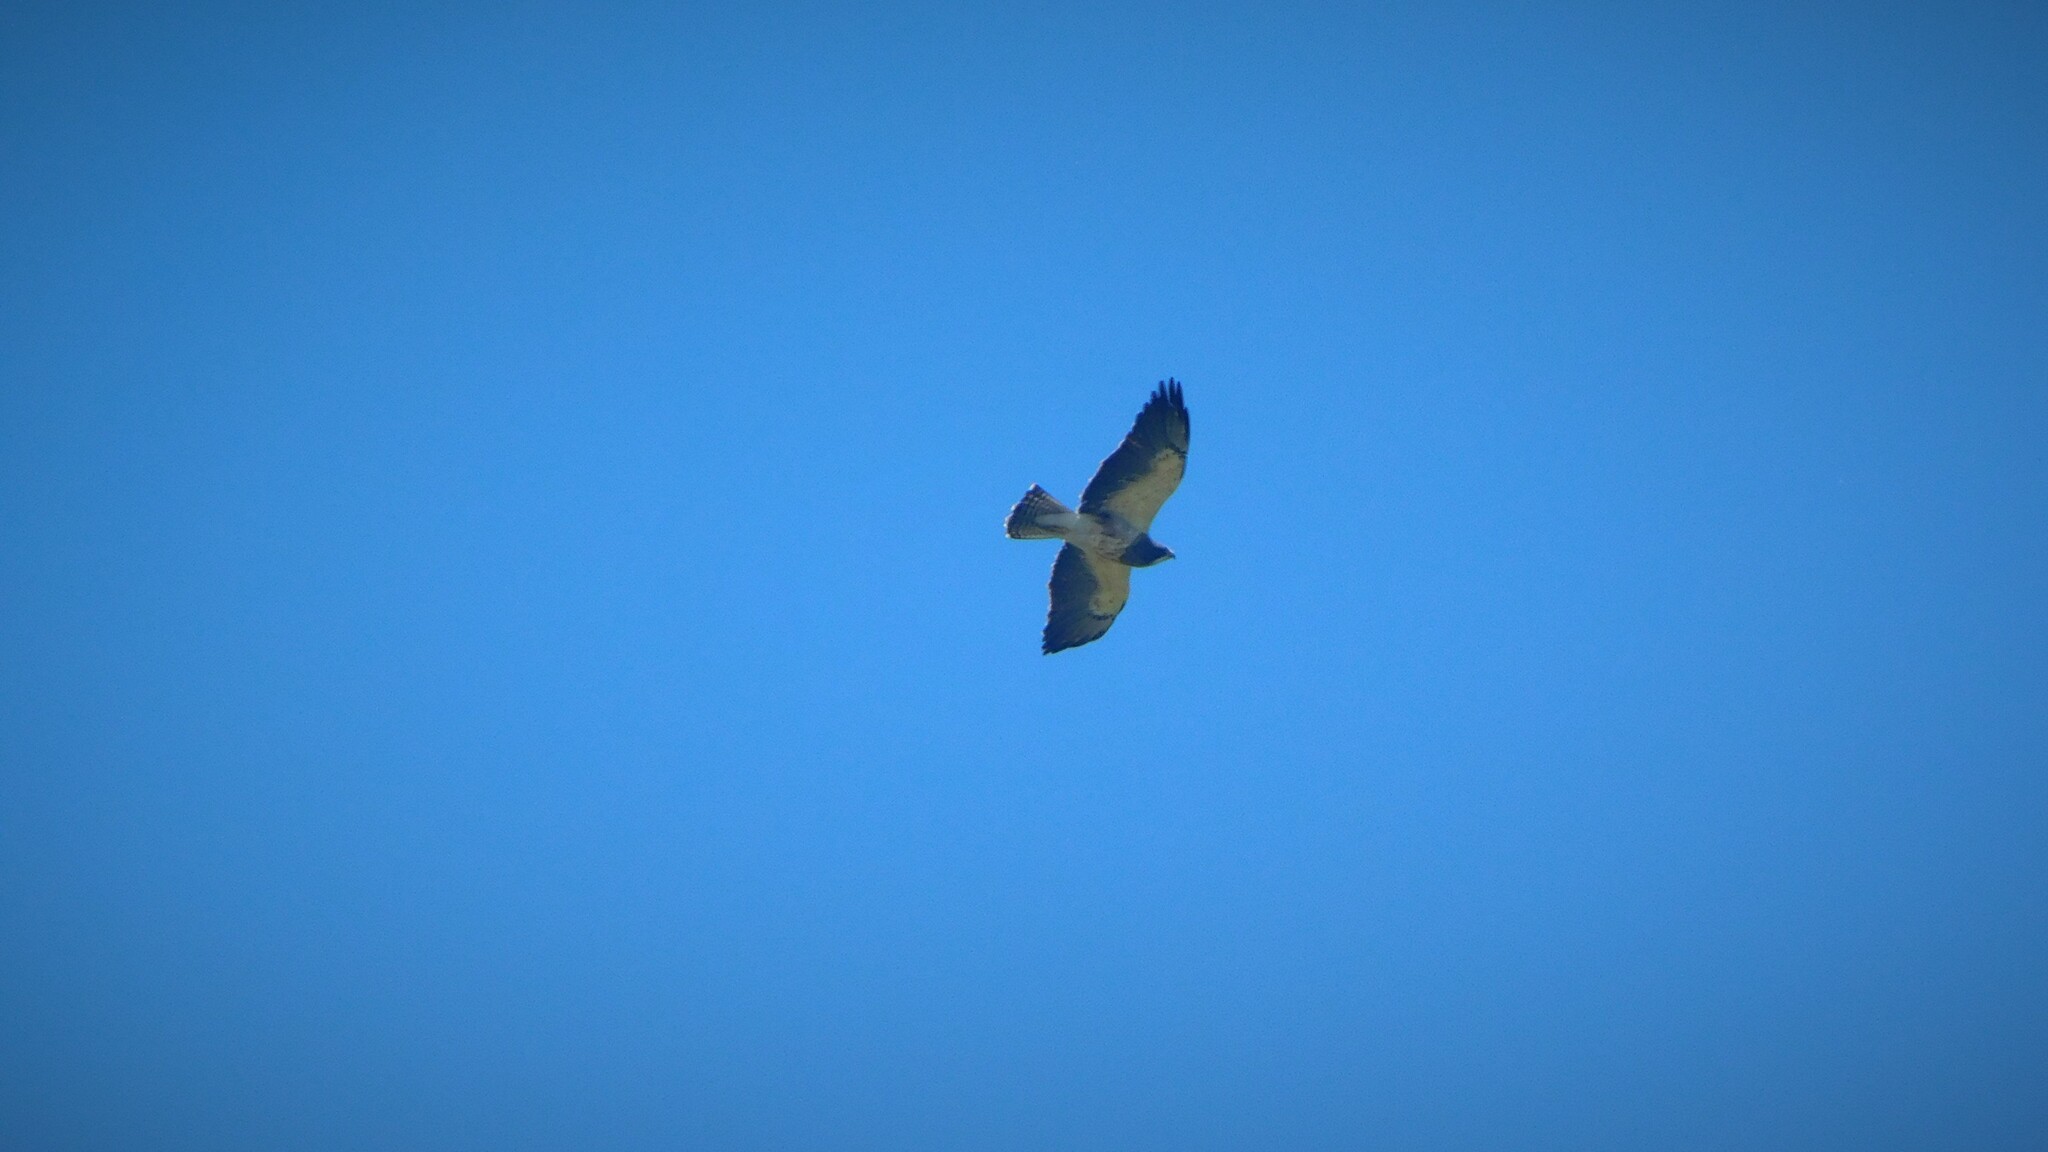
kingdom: Animalia
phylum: Chordata
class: Aves
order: Accipitriformes
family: Accipitridae
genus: Buteo
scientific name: Buteo swainsoni
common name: Swainson's hawk
